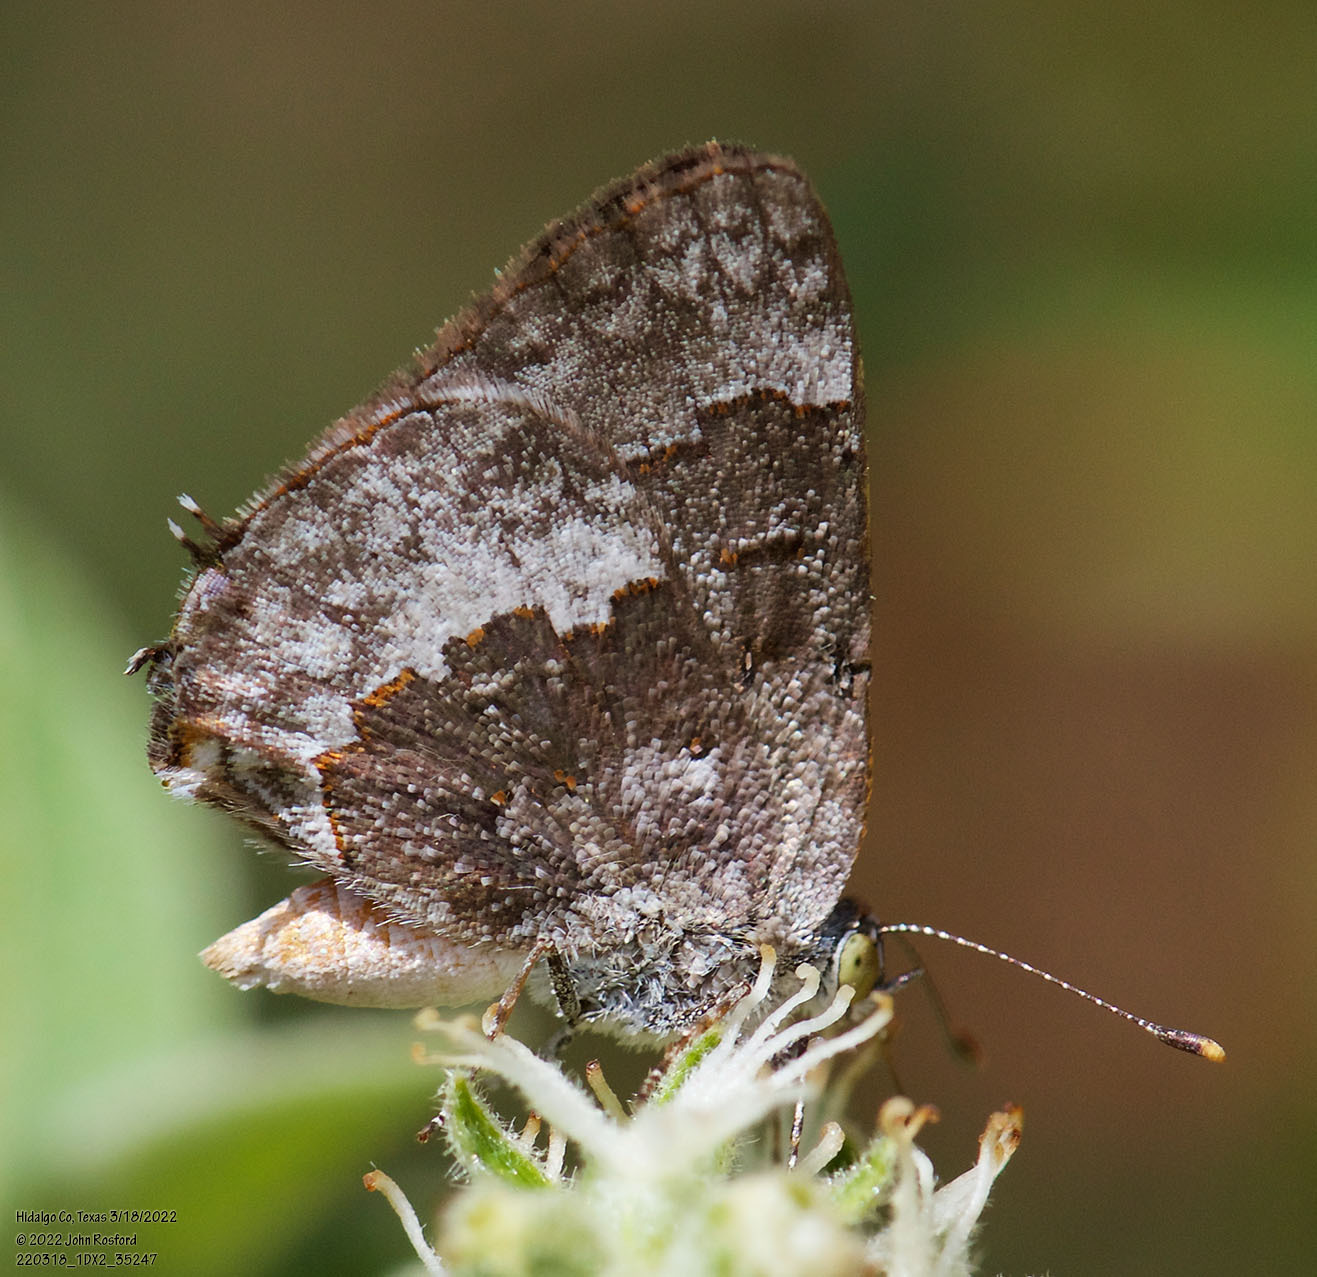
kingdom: Animalia
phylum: Arthropoda
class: Insecta
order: Lepidoptera
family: Lycaenidae
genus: Ministrymon
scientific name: Ministrymon clytie
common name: Clytie ministreak
